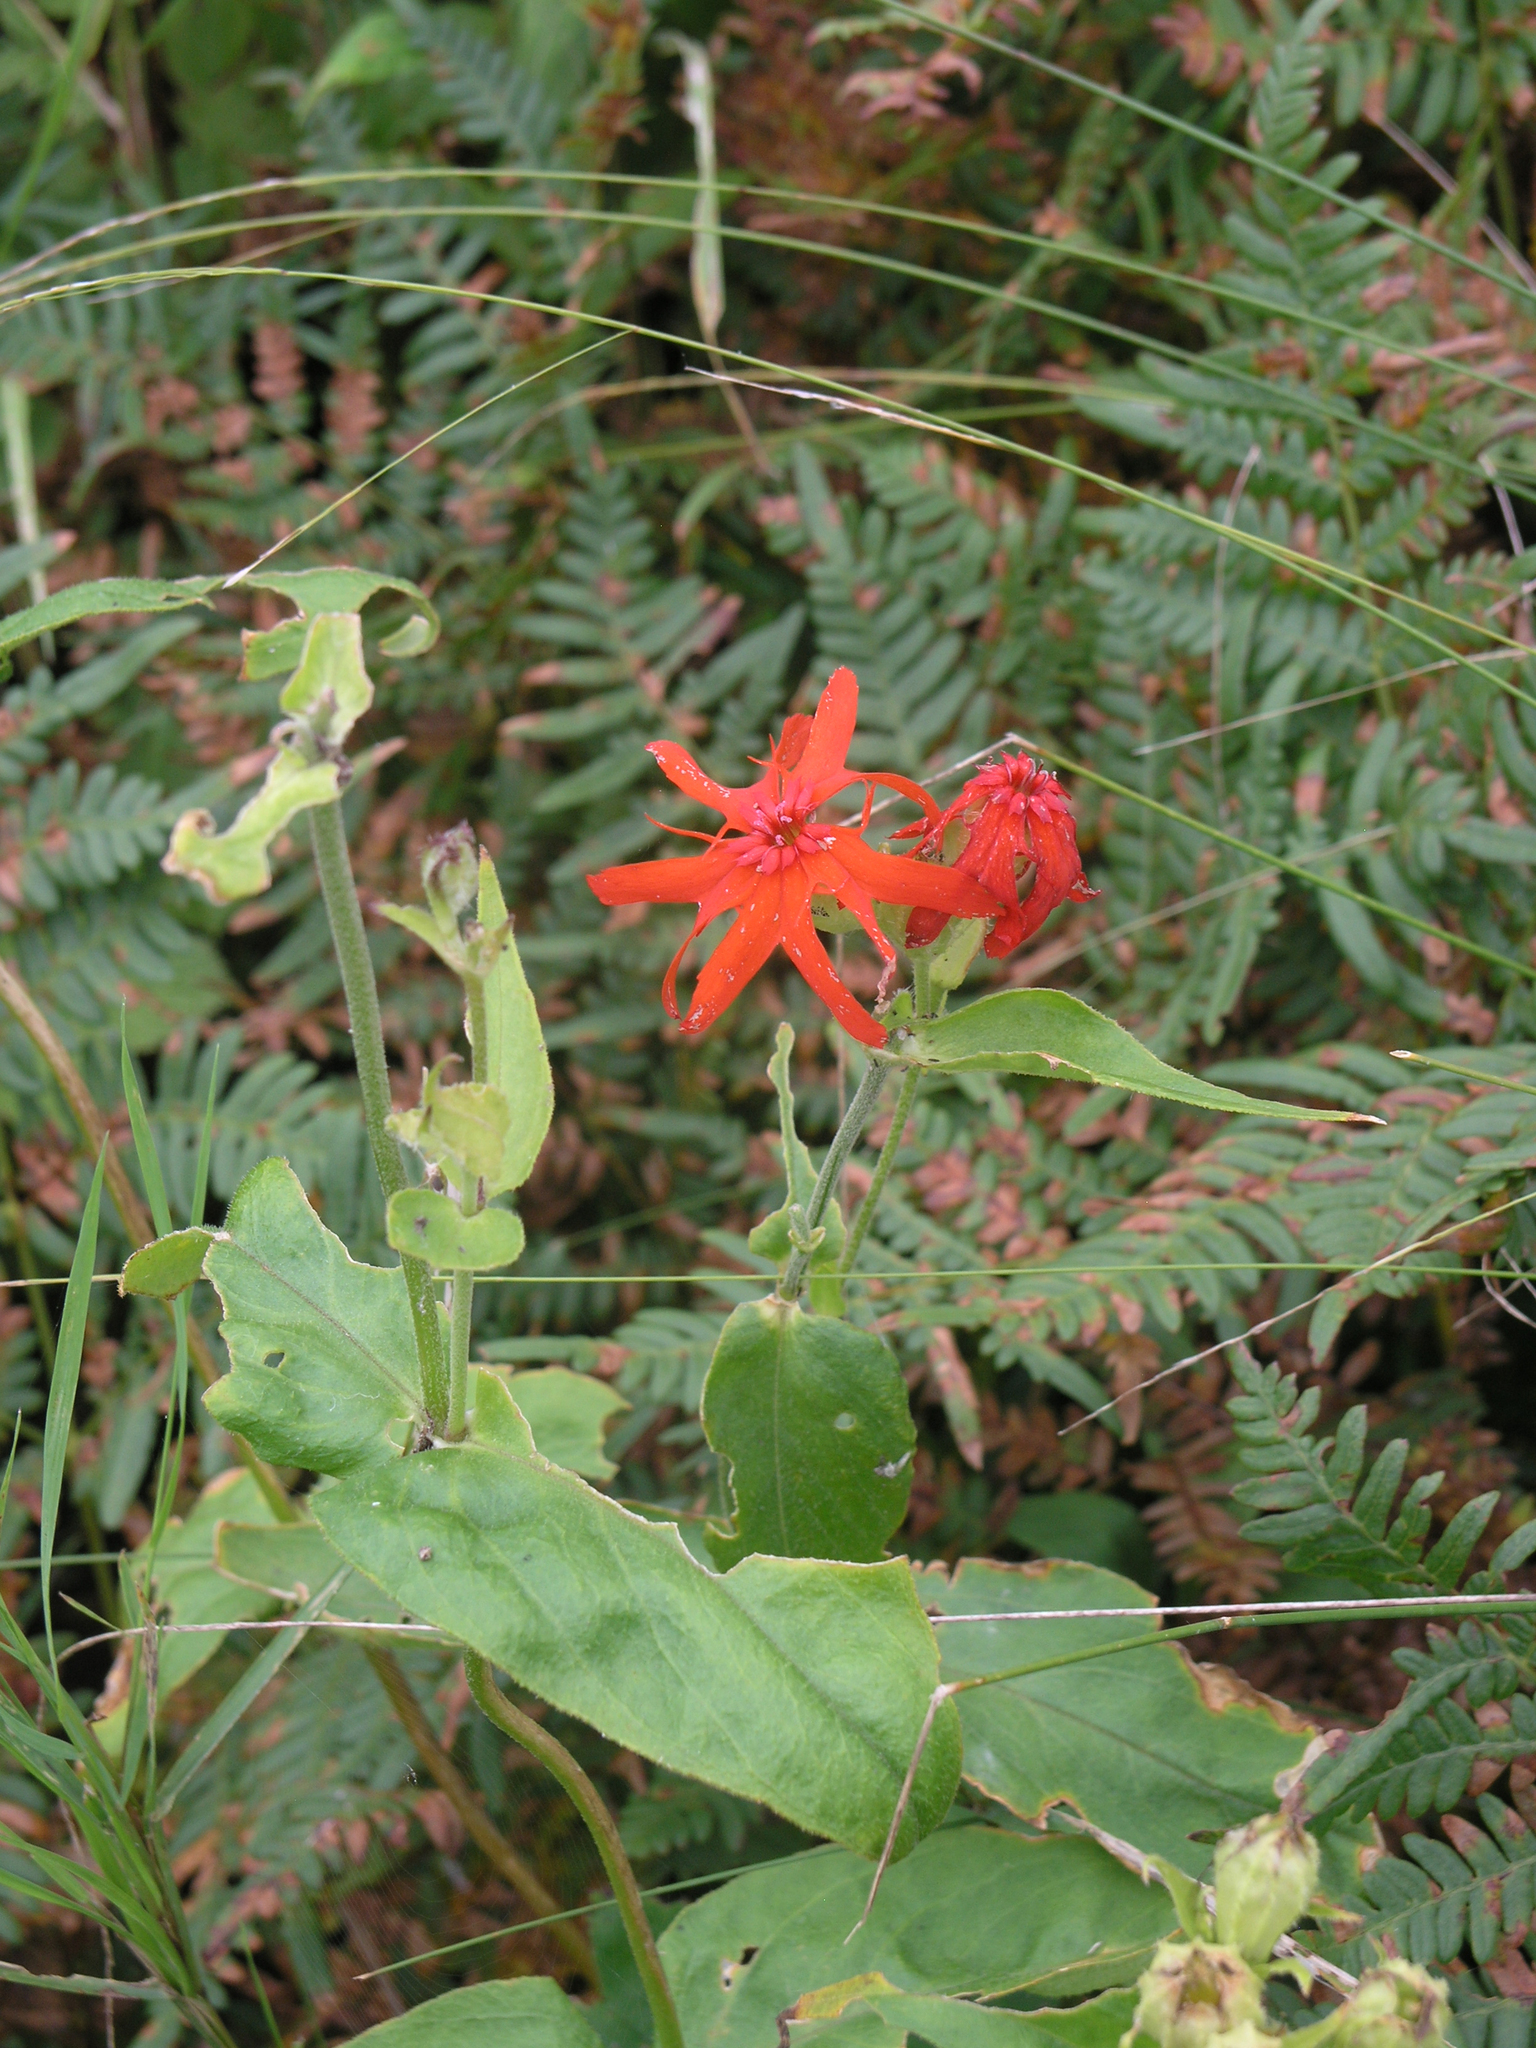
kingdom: Plantae
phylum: Tracheophyta
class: Magnoliopsida
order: Caryophyllales
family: Caryophyllaceae
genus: Silene
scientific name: Silene banksia
